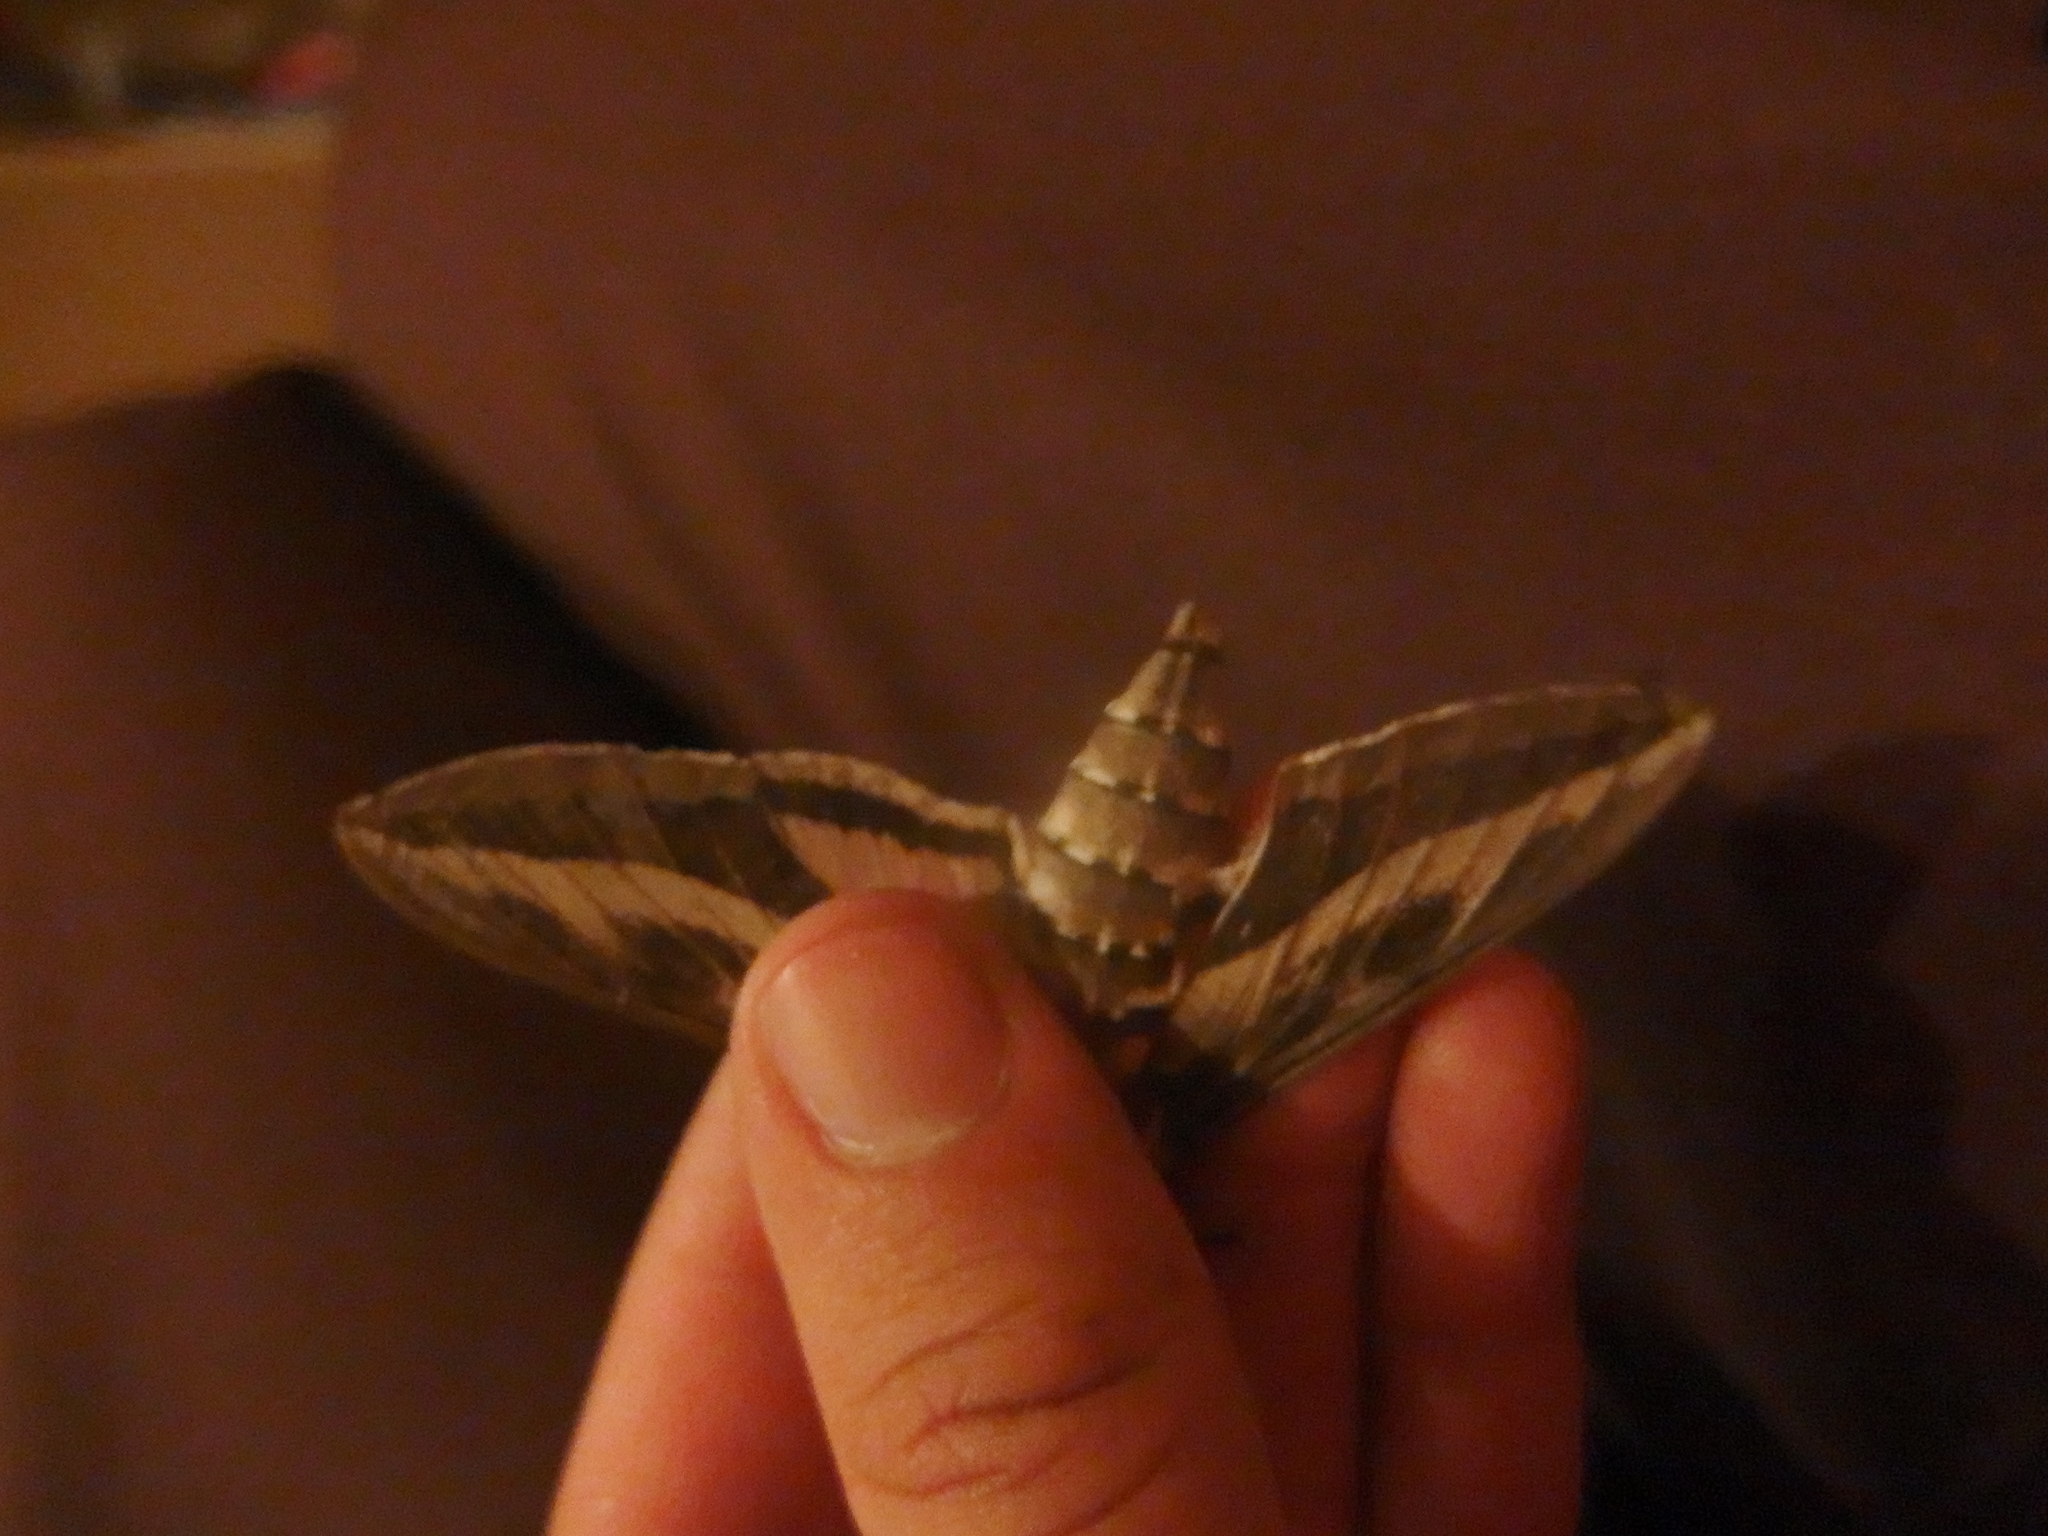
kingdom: Animalia
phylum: Arthropoda
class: Insecta
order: Lepidoptera
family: Sphingidae
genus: Hyles
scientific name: Hyles gallii
